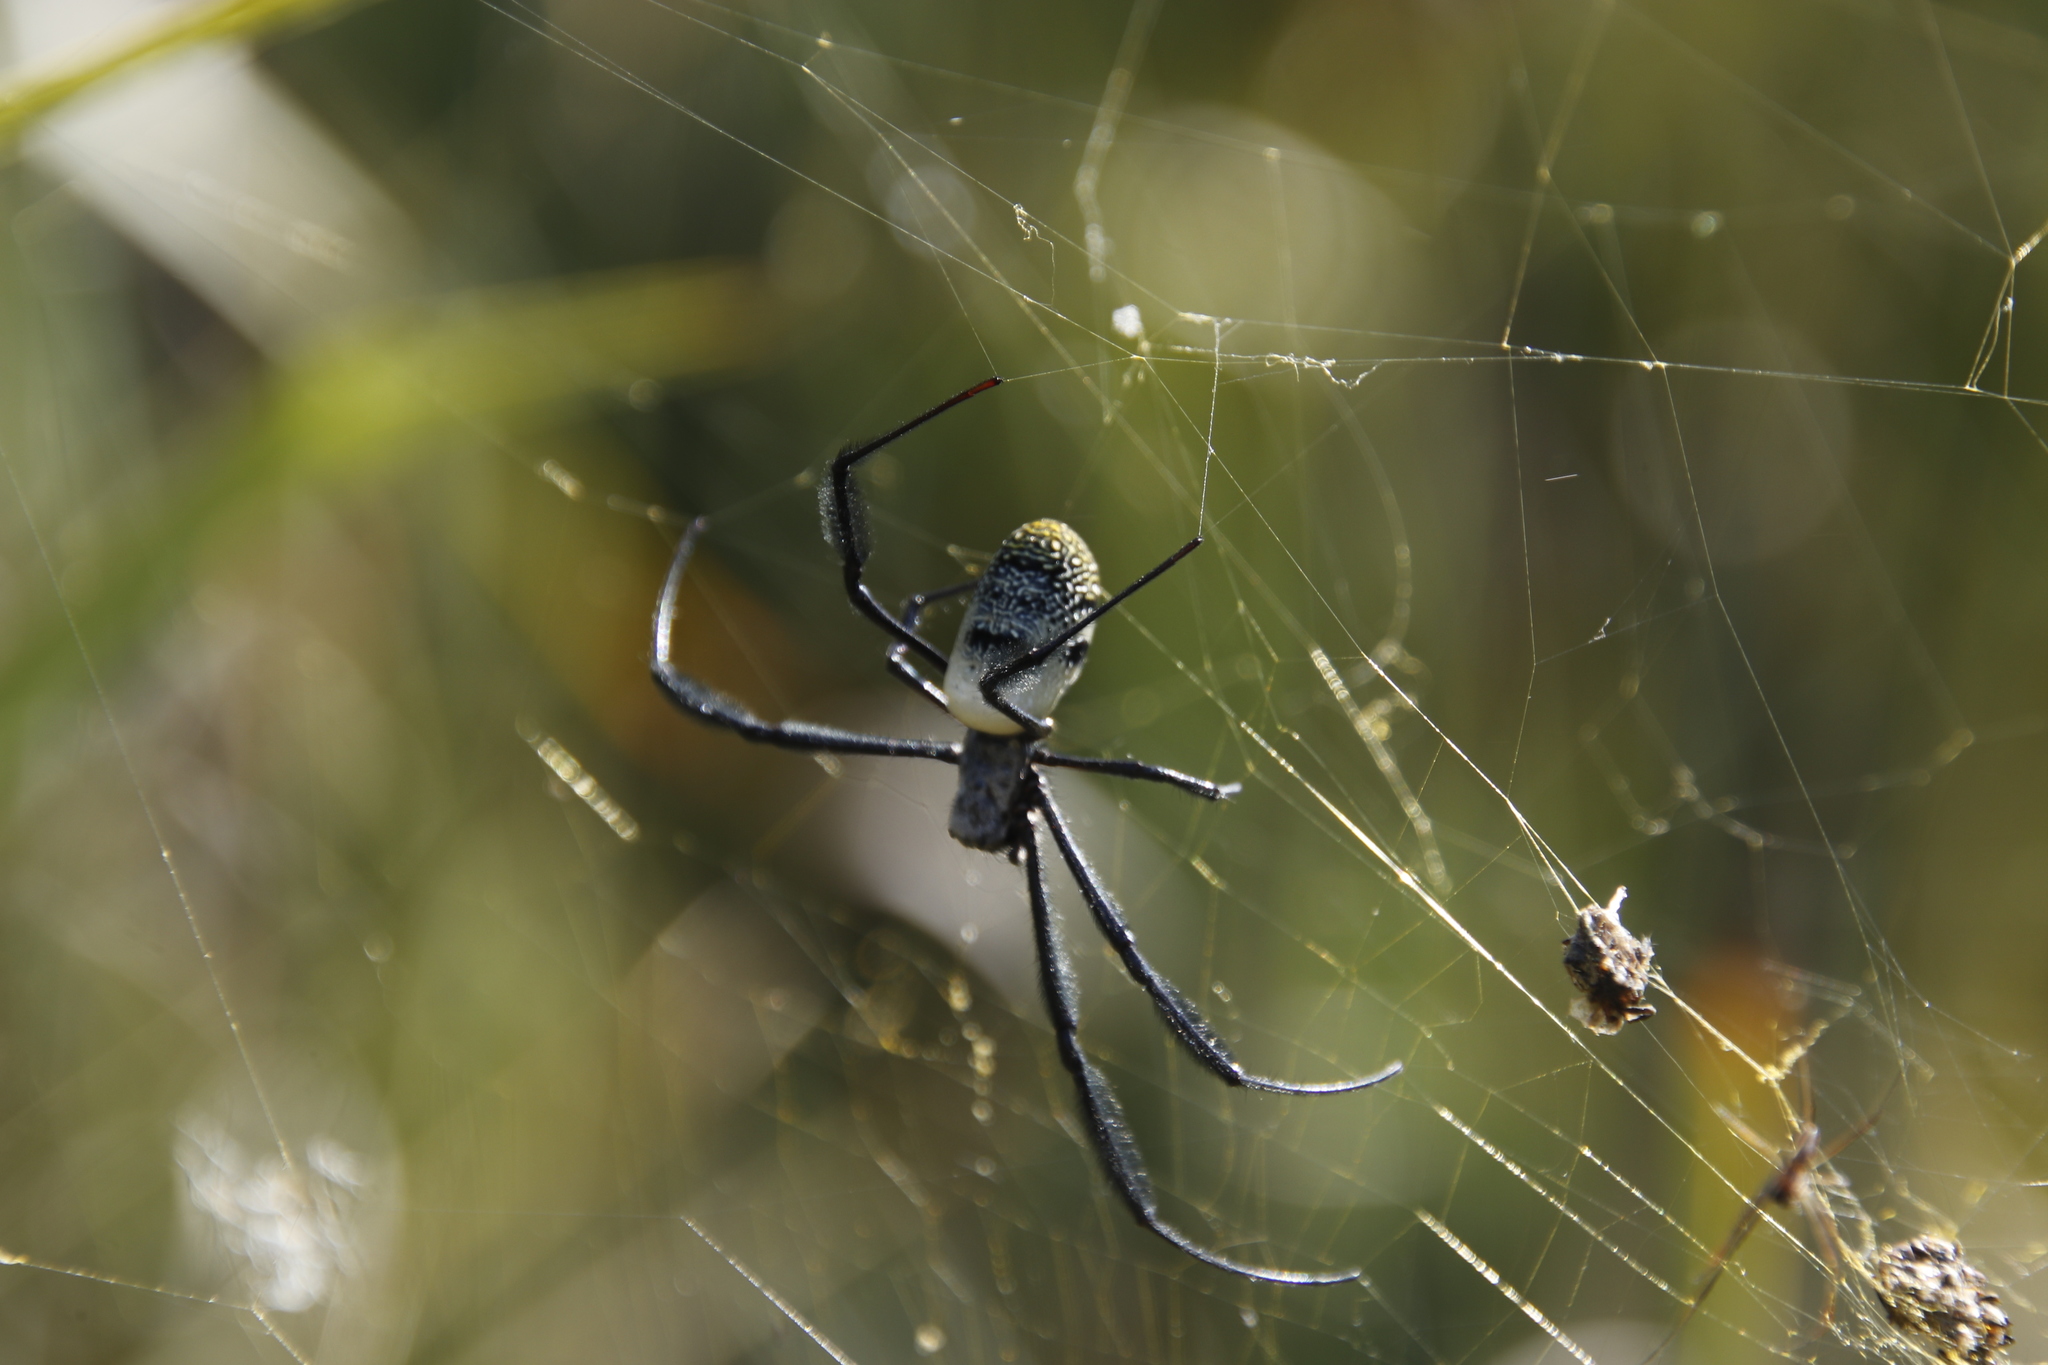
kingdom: Animalia
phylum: Arthropoda
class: Arachnida
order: Araneae
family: Araneidae
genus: Trichonephila
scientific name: Trichonephila fenestrata
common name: Hairy golden orb weaver
